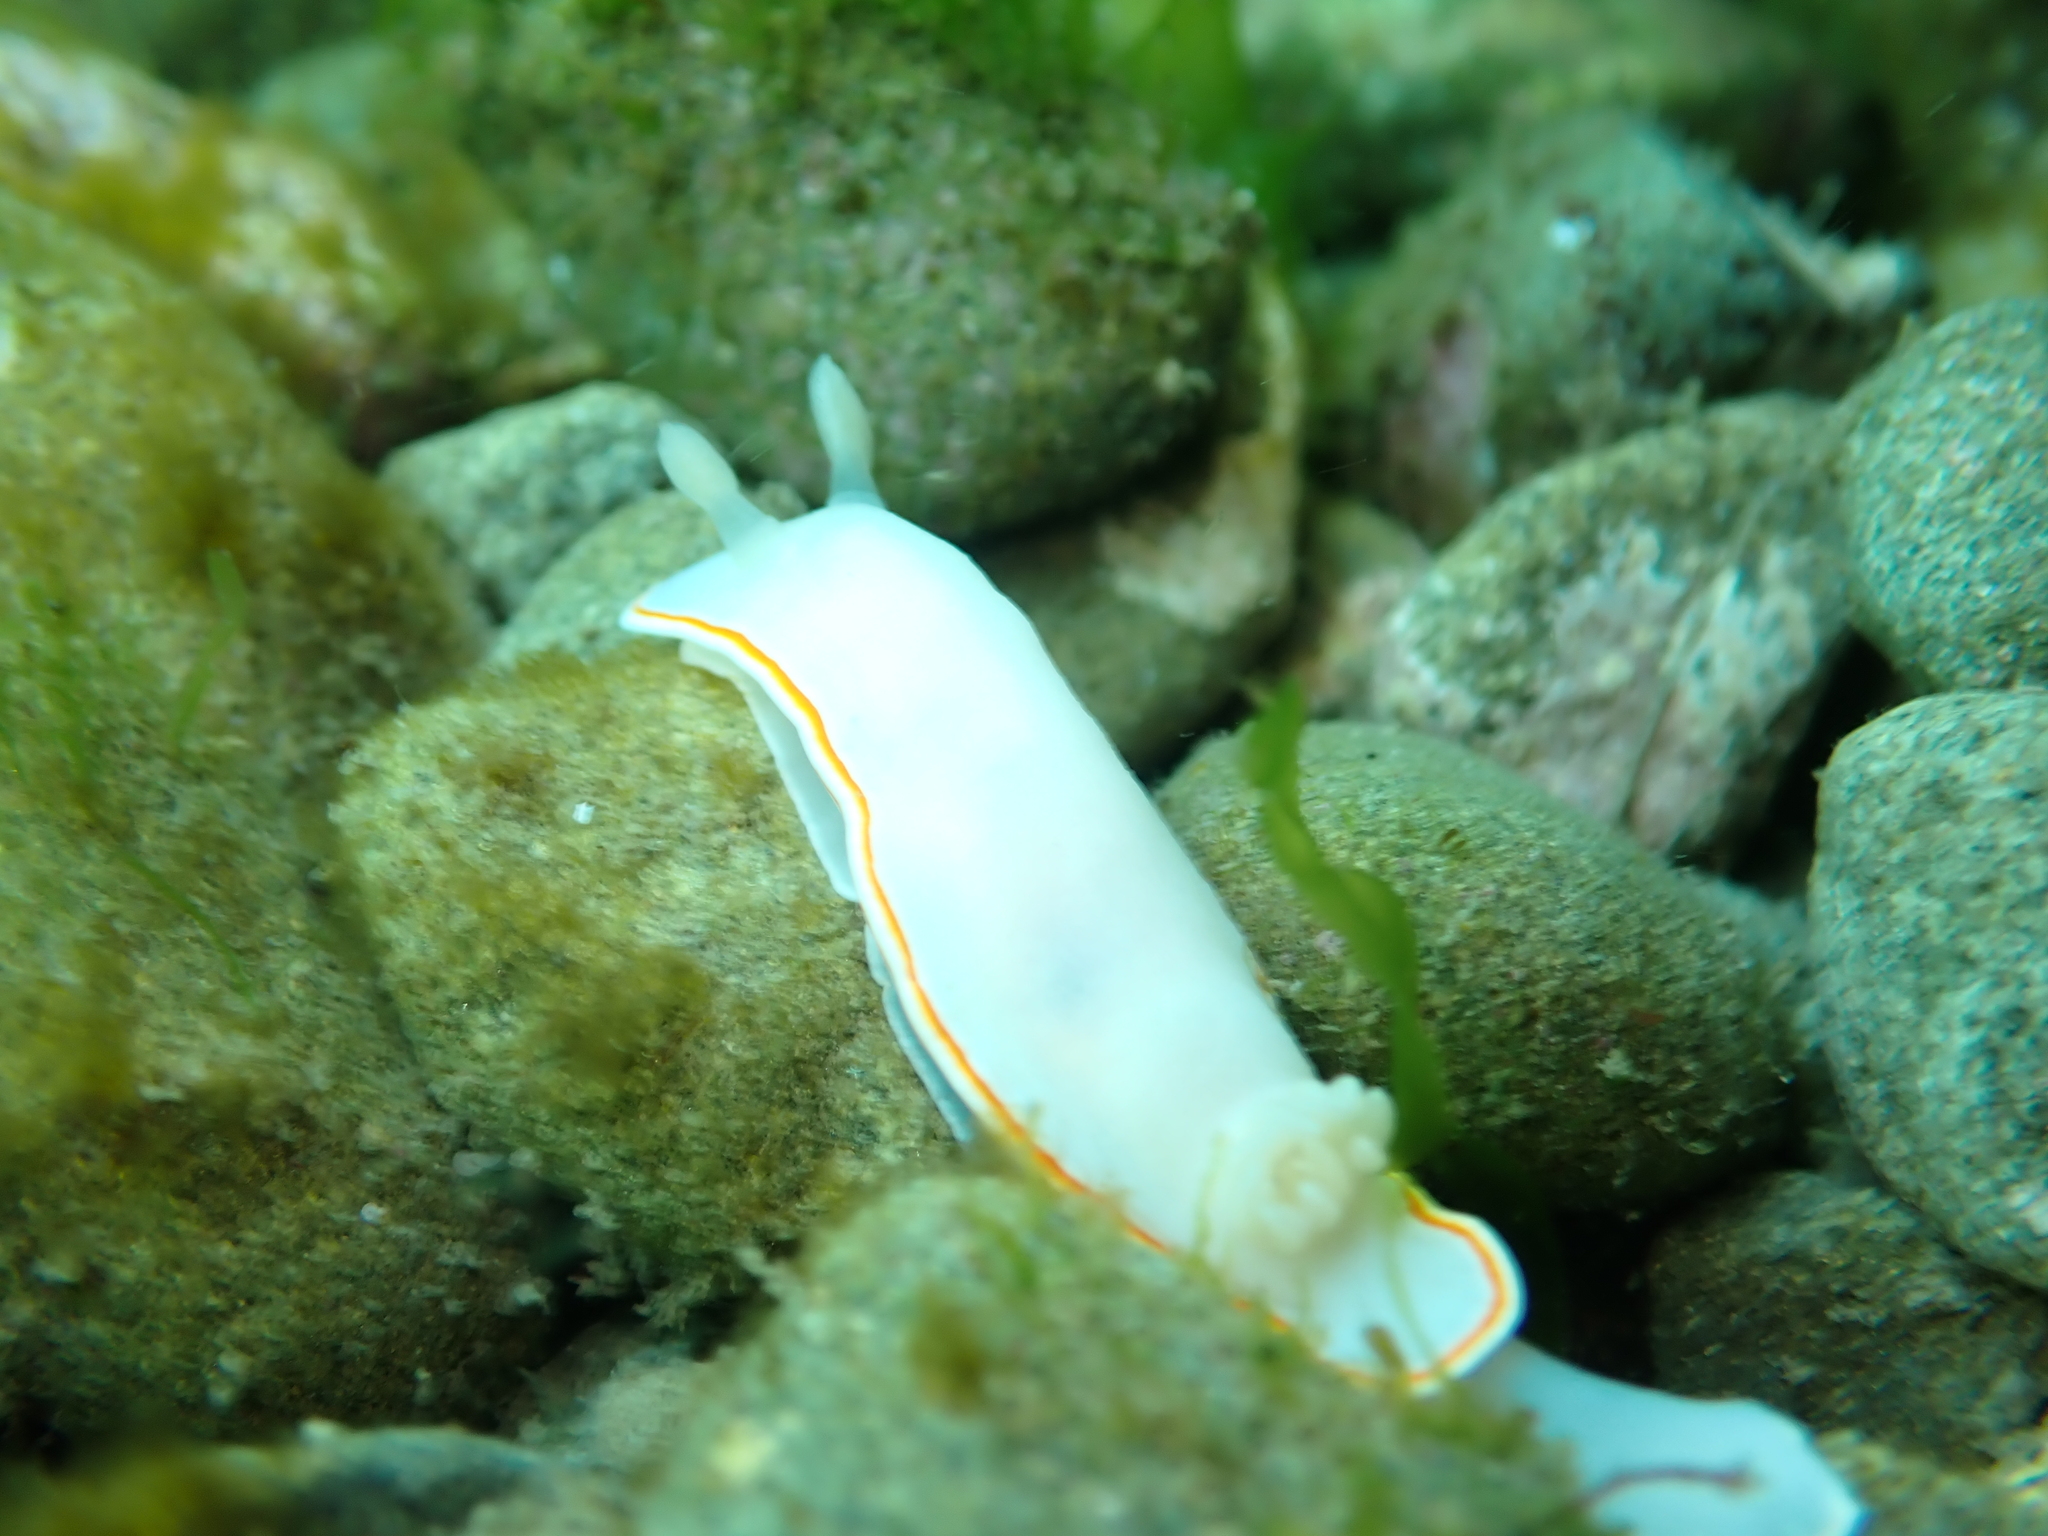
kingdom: Animalia
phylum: Mollusca
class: Gastropoda
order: Nudibranchia
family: Chromodorididae
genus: Goniobranchus
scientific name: Goniobranchus aureomarginatus
